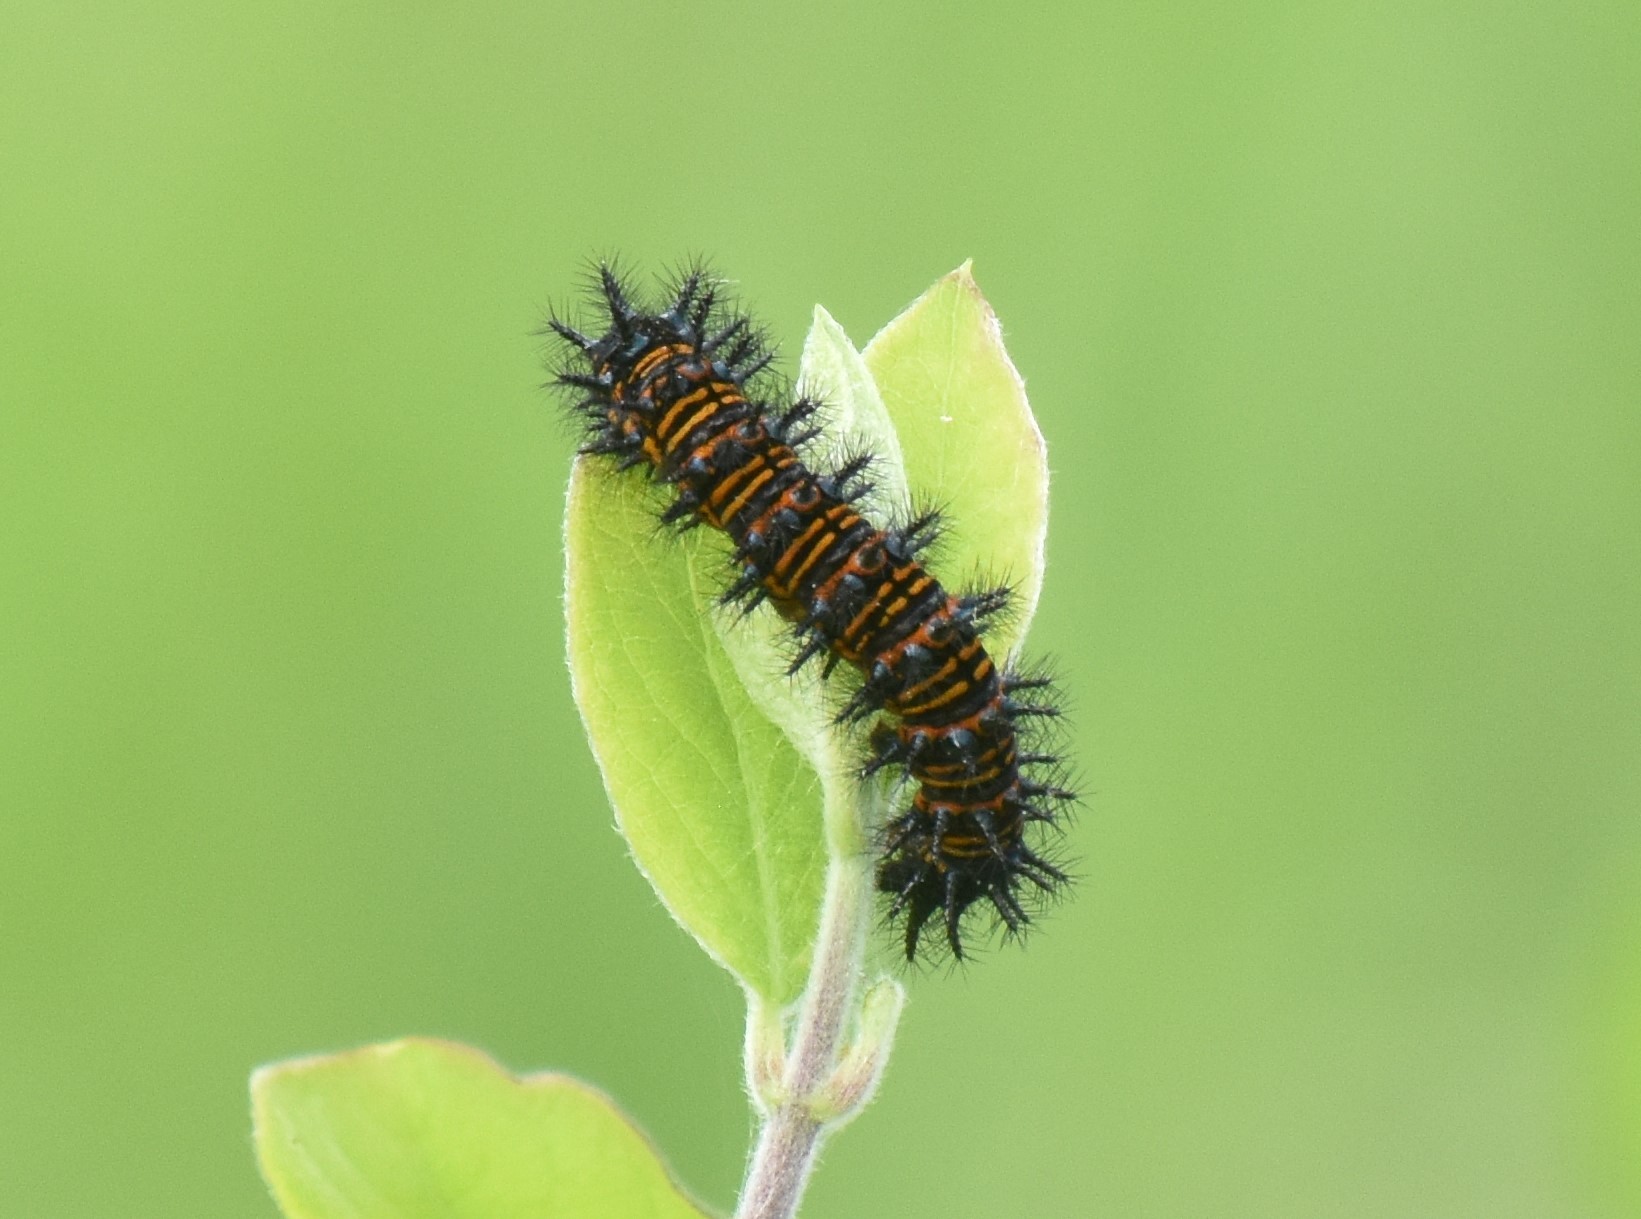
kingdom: Animalia
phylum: Arthropoda
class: Insecta
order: Lepidoptera
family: Nymphalidae
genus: Euphydryas
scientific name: Euphydryas phaeton
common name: Baltimore checkerspot
